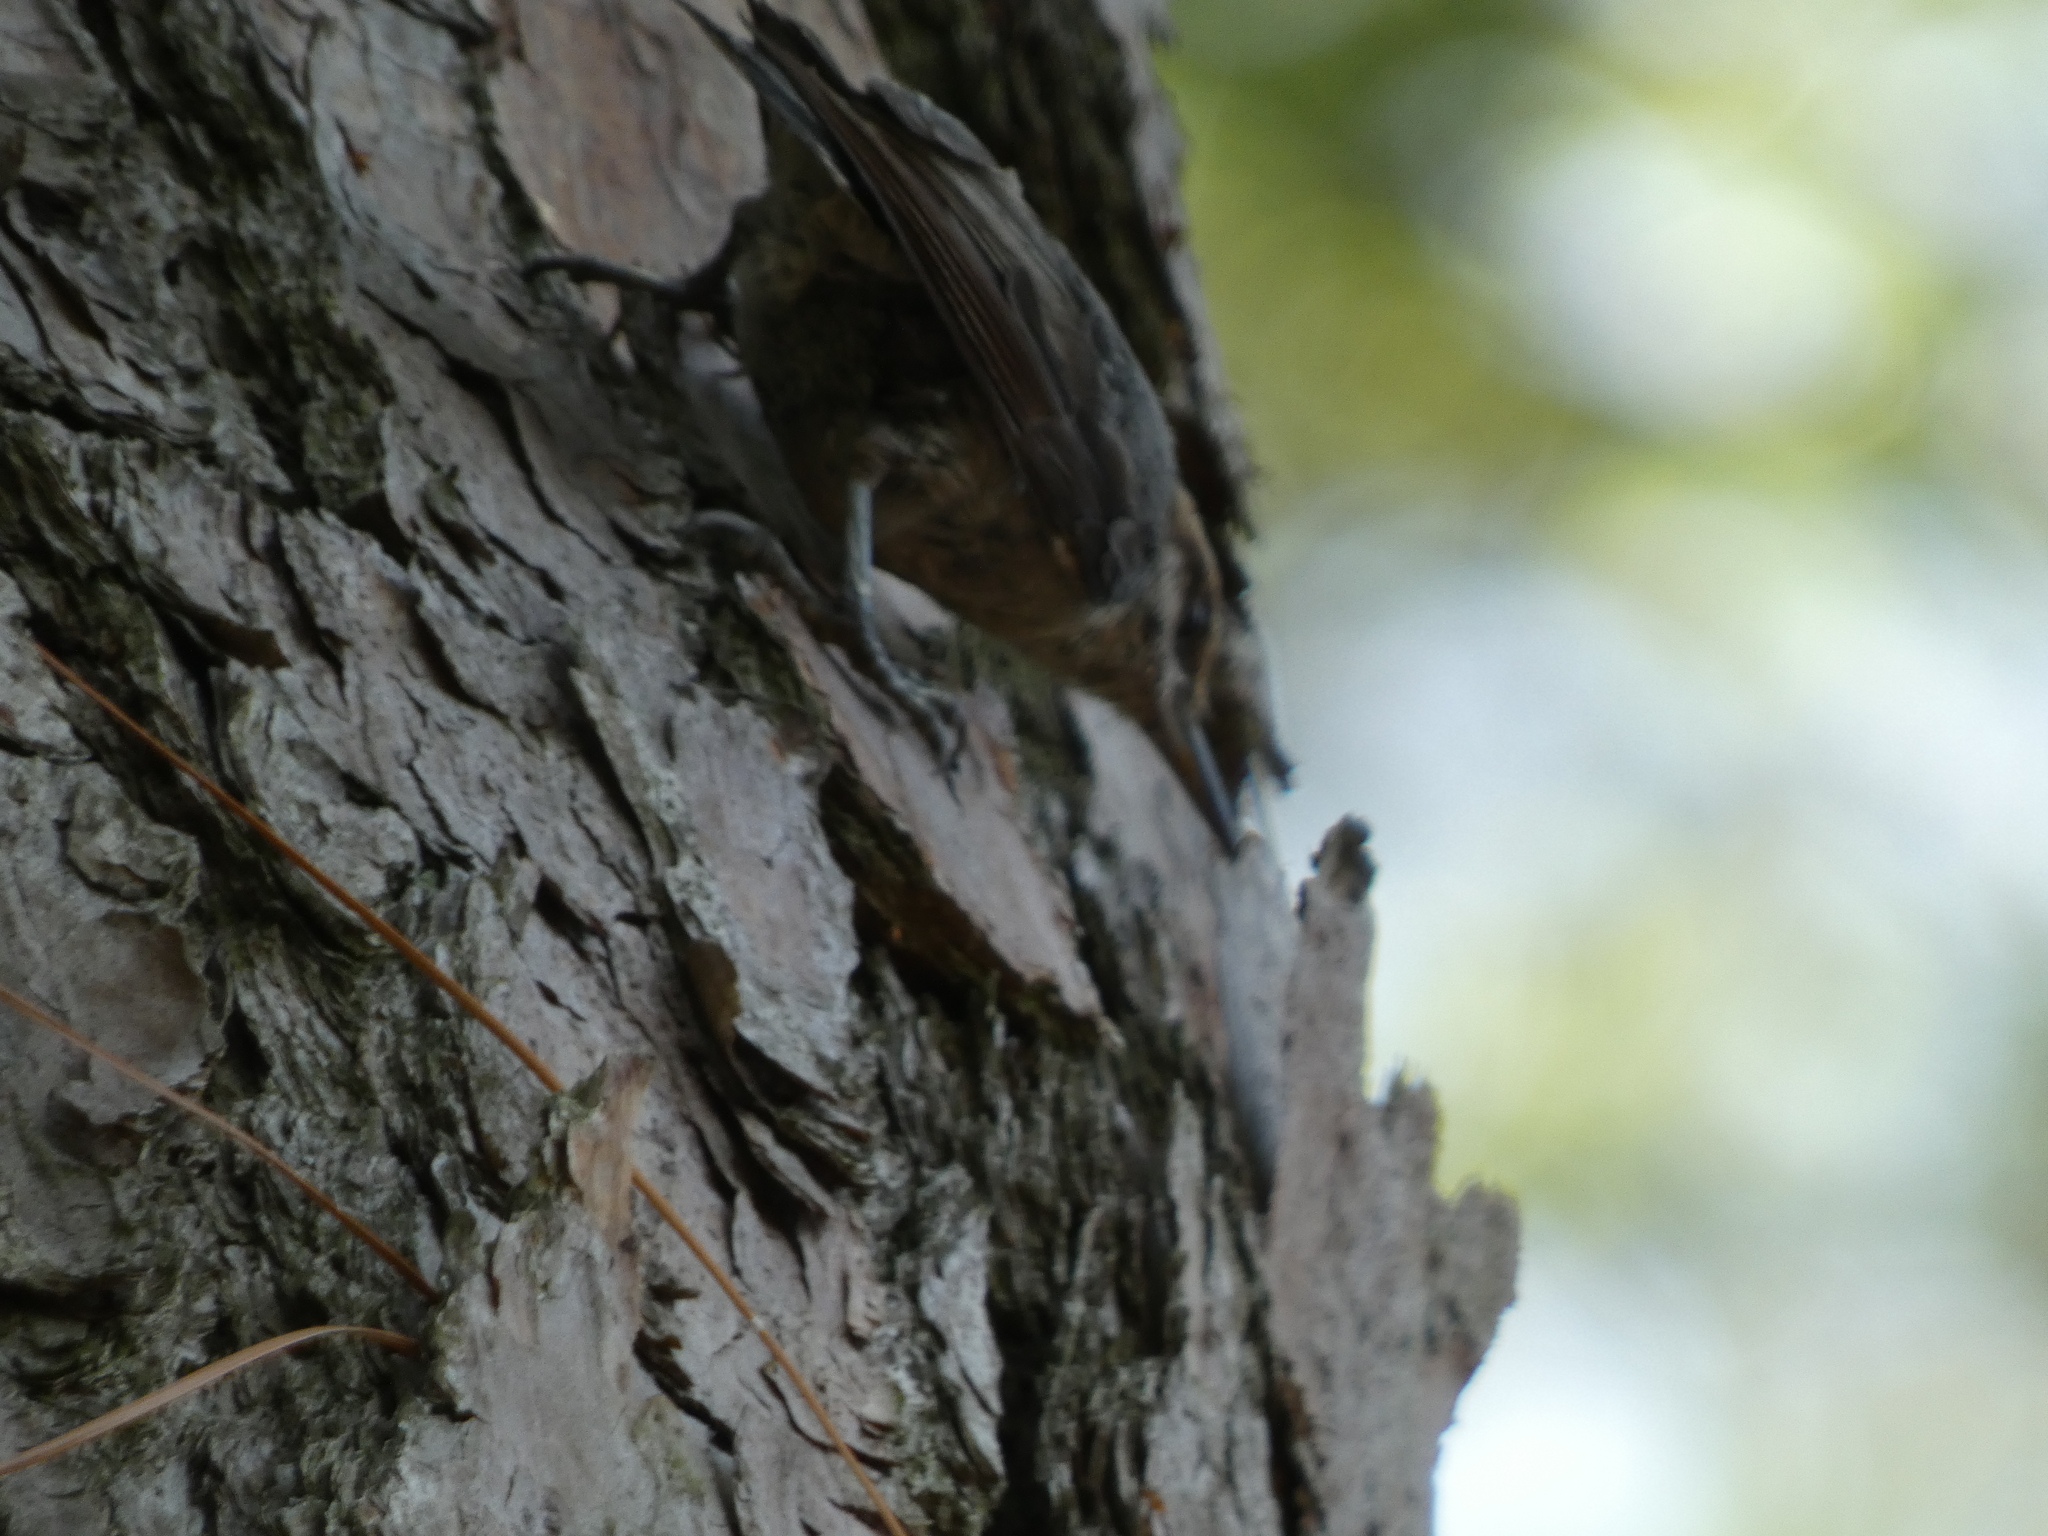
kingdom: Animalia
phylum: Chordata
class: Aves
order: Passeriformes
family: Sittidae
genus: Sitta
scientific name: Sitta pusilla
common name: Brown-headed nuthatch
